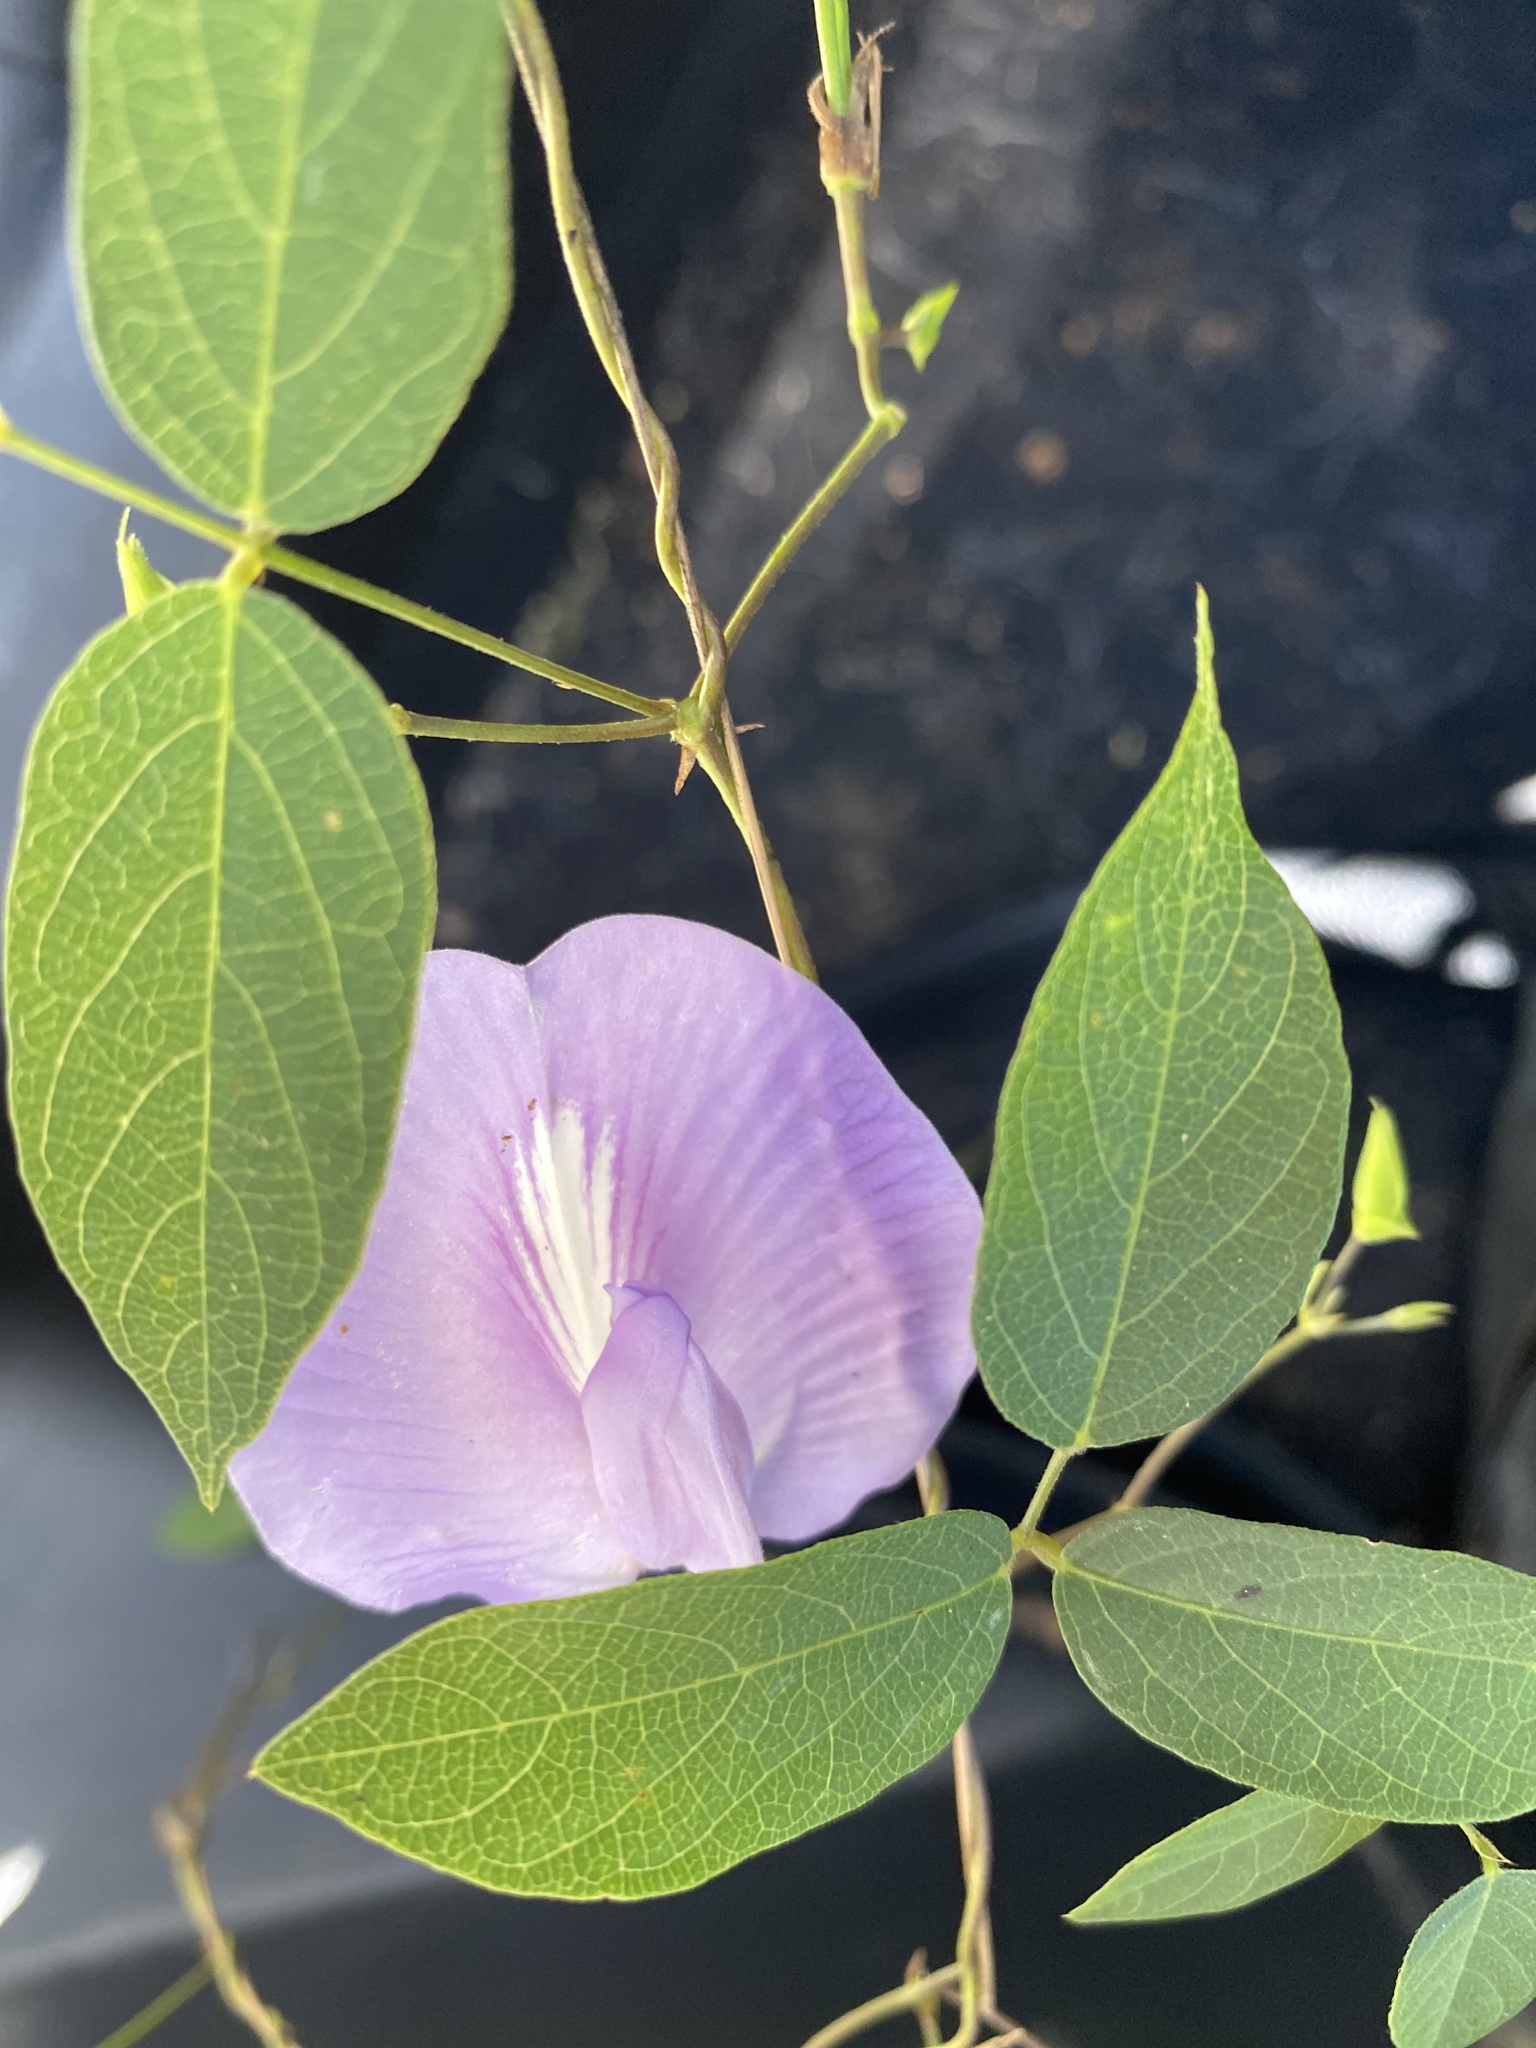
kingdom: Plantae
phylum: Tracheophyta
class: Magnoliopsida
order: Fabales
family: Fabaceae
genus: Centrosema
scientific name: Centrosema virginianum
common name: Butterfly-pea
